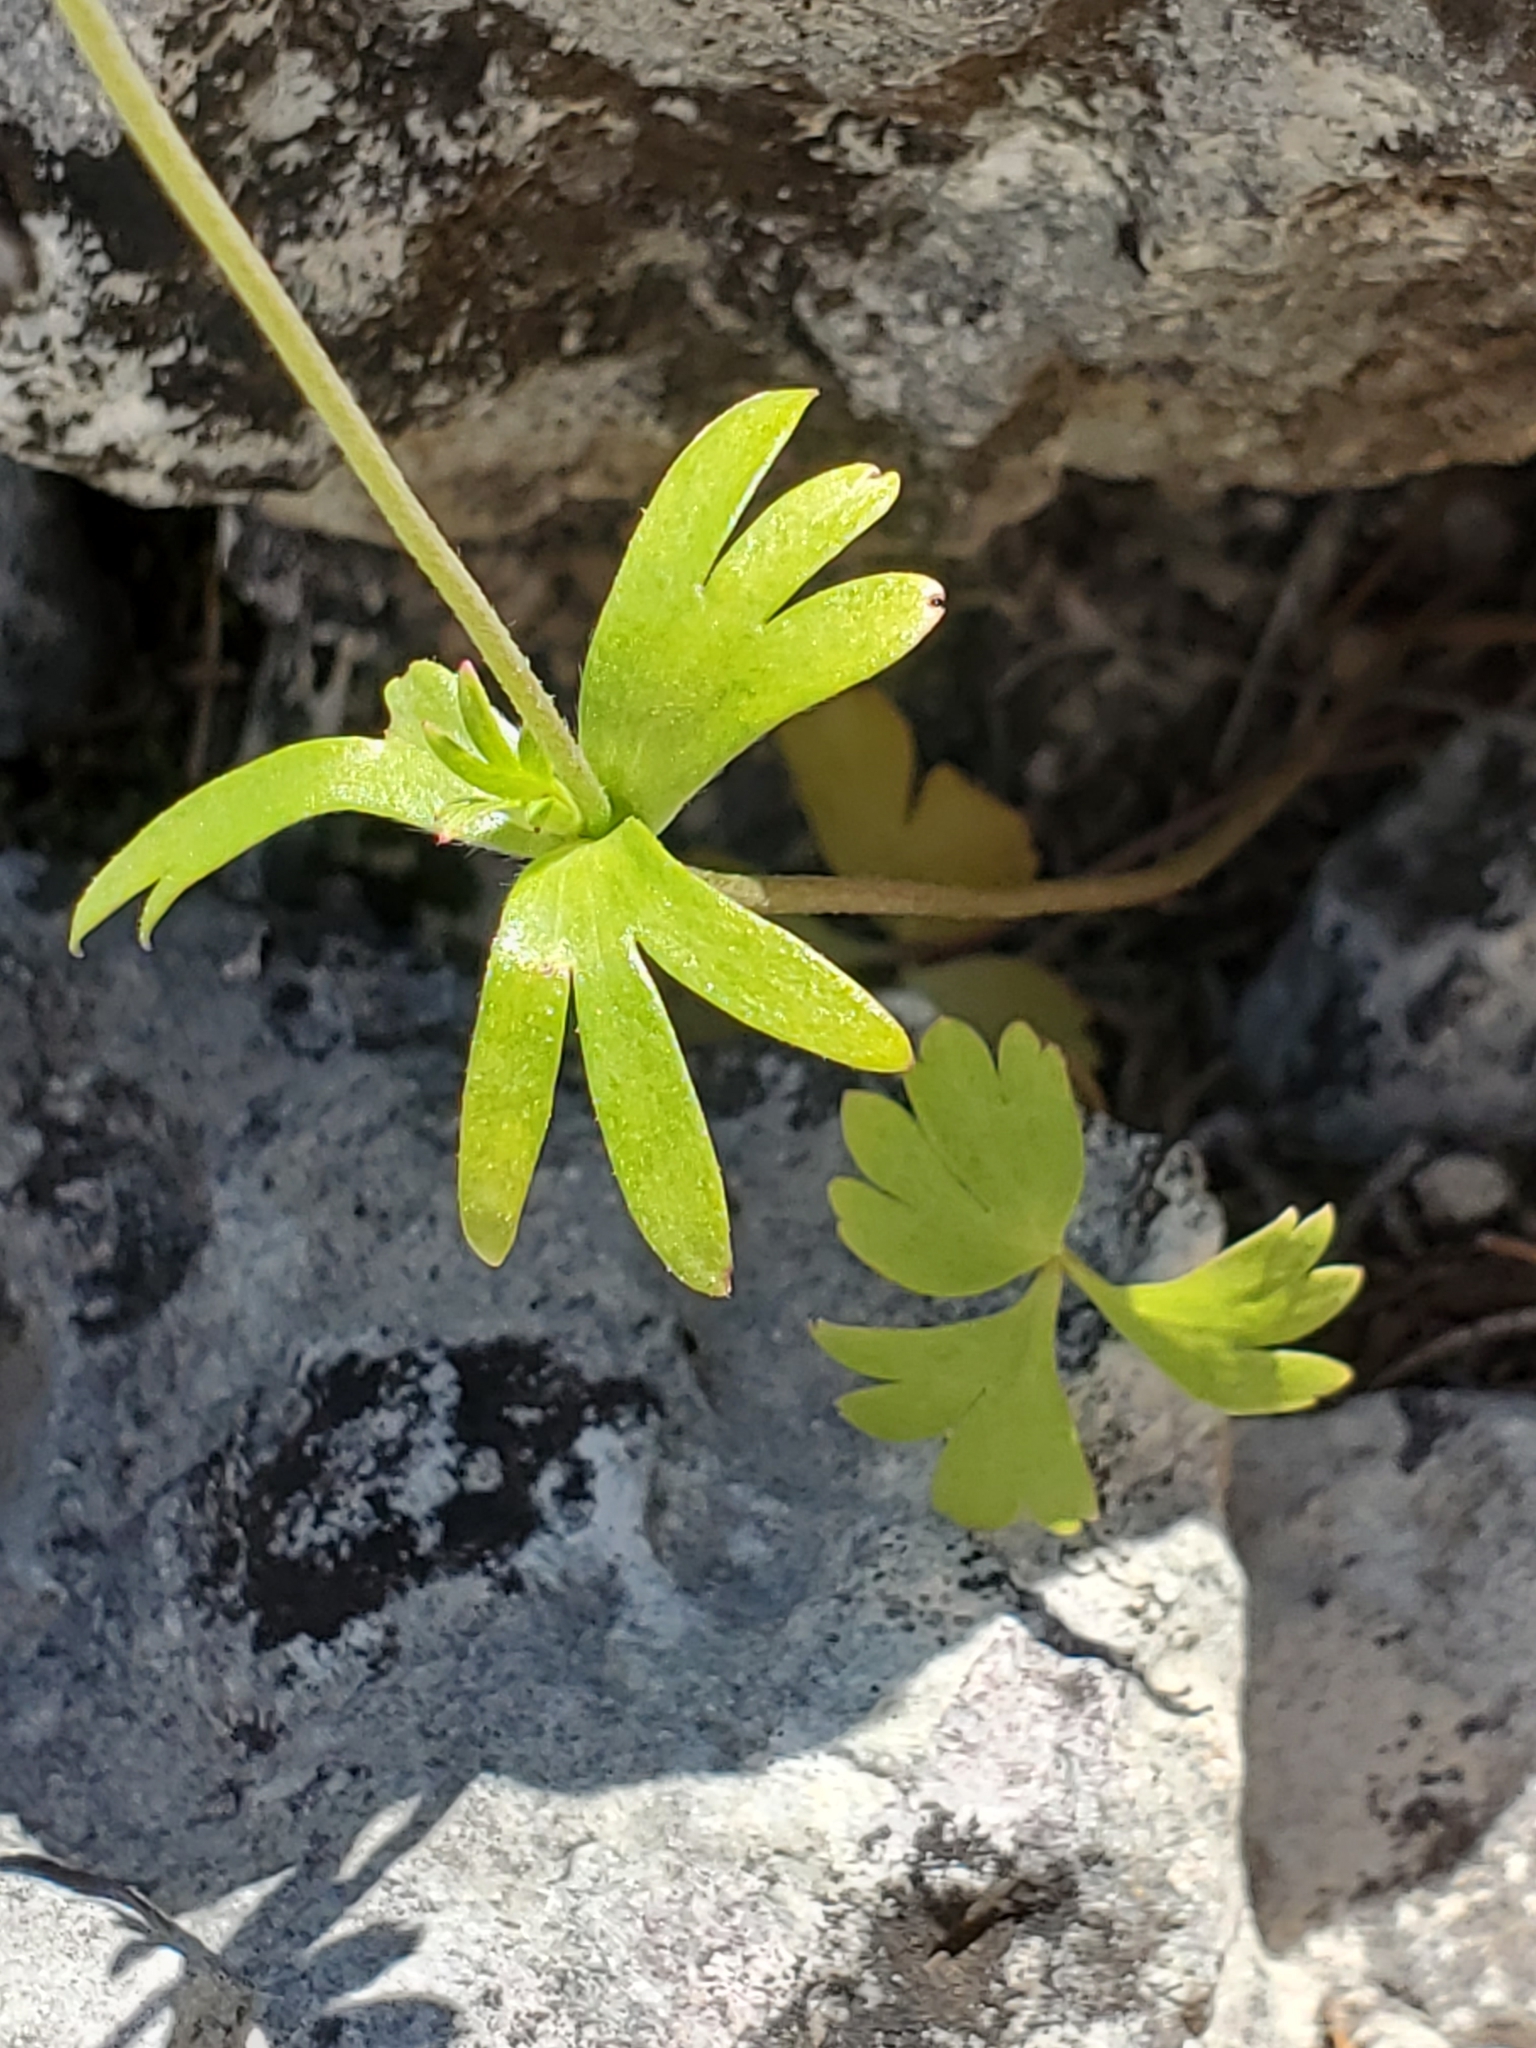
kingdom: Plantae
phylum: Tracheophyta
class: Magnoliopsida
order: Ranunculales
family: Ranunculaceae
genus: Anemone
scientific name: Anemone edwardsiana
